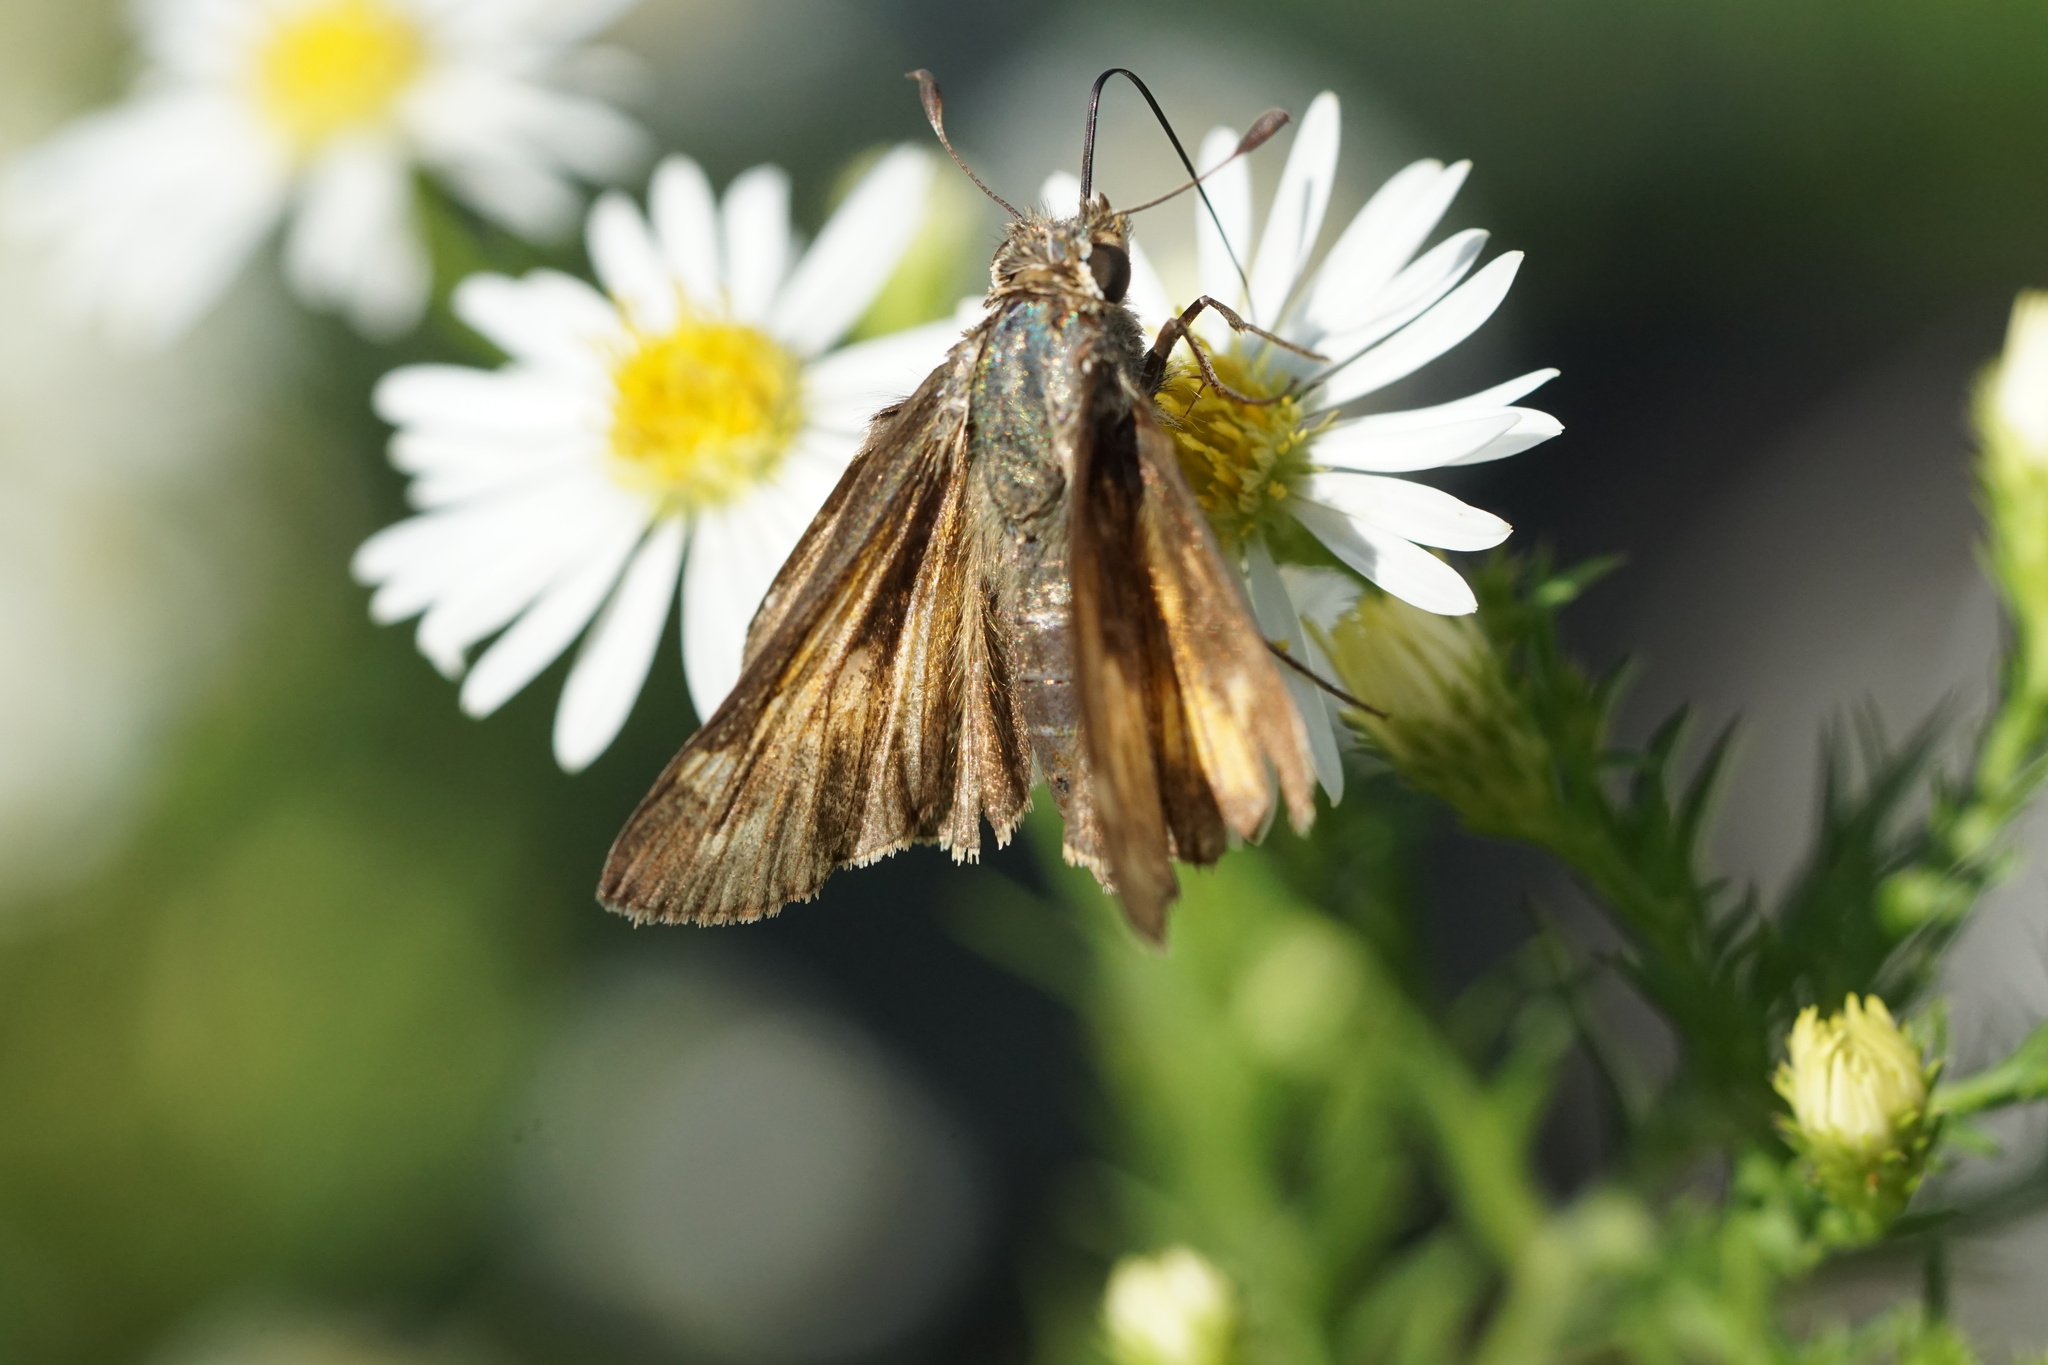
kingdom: Animalia
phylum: Arthropoda
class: Insecta
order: Lepidoptera
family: Hesperiidae
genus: Atalopedes
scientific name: Atalopedes
